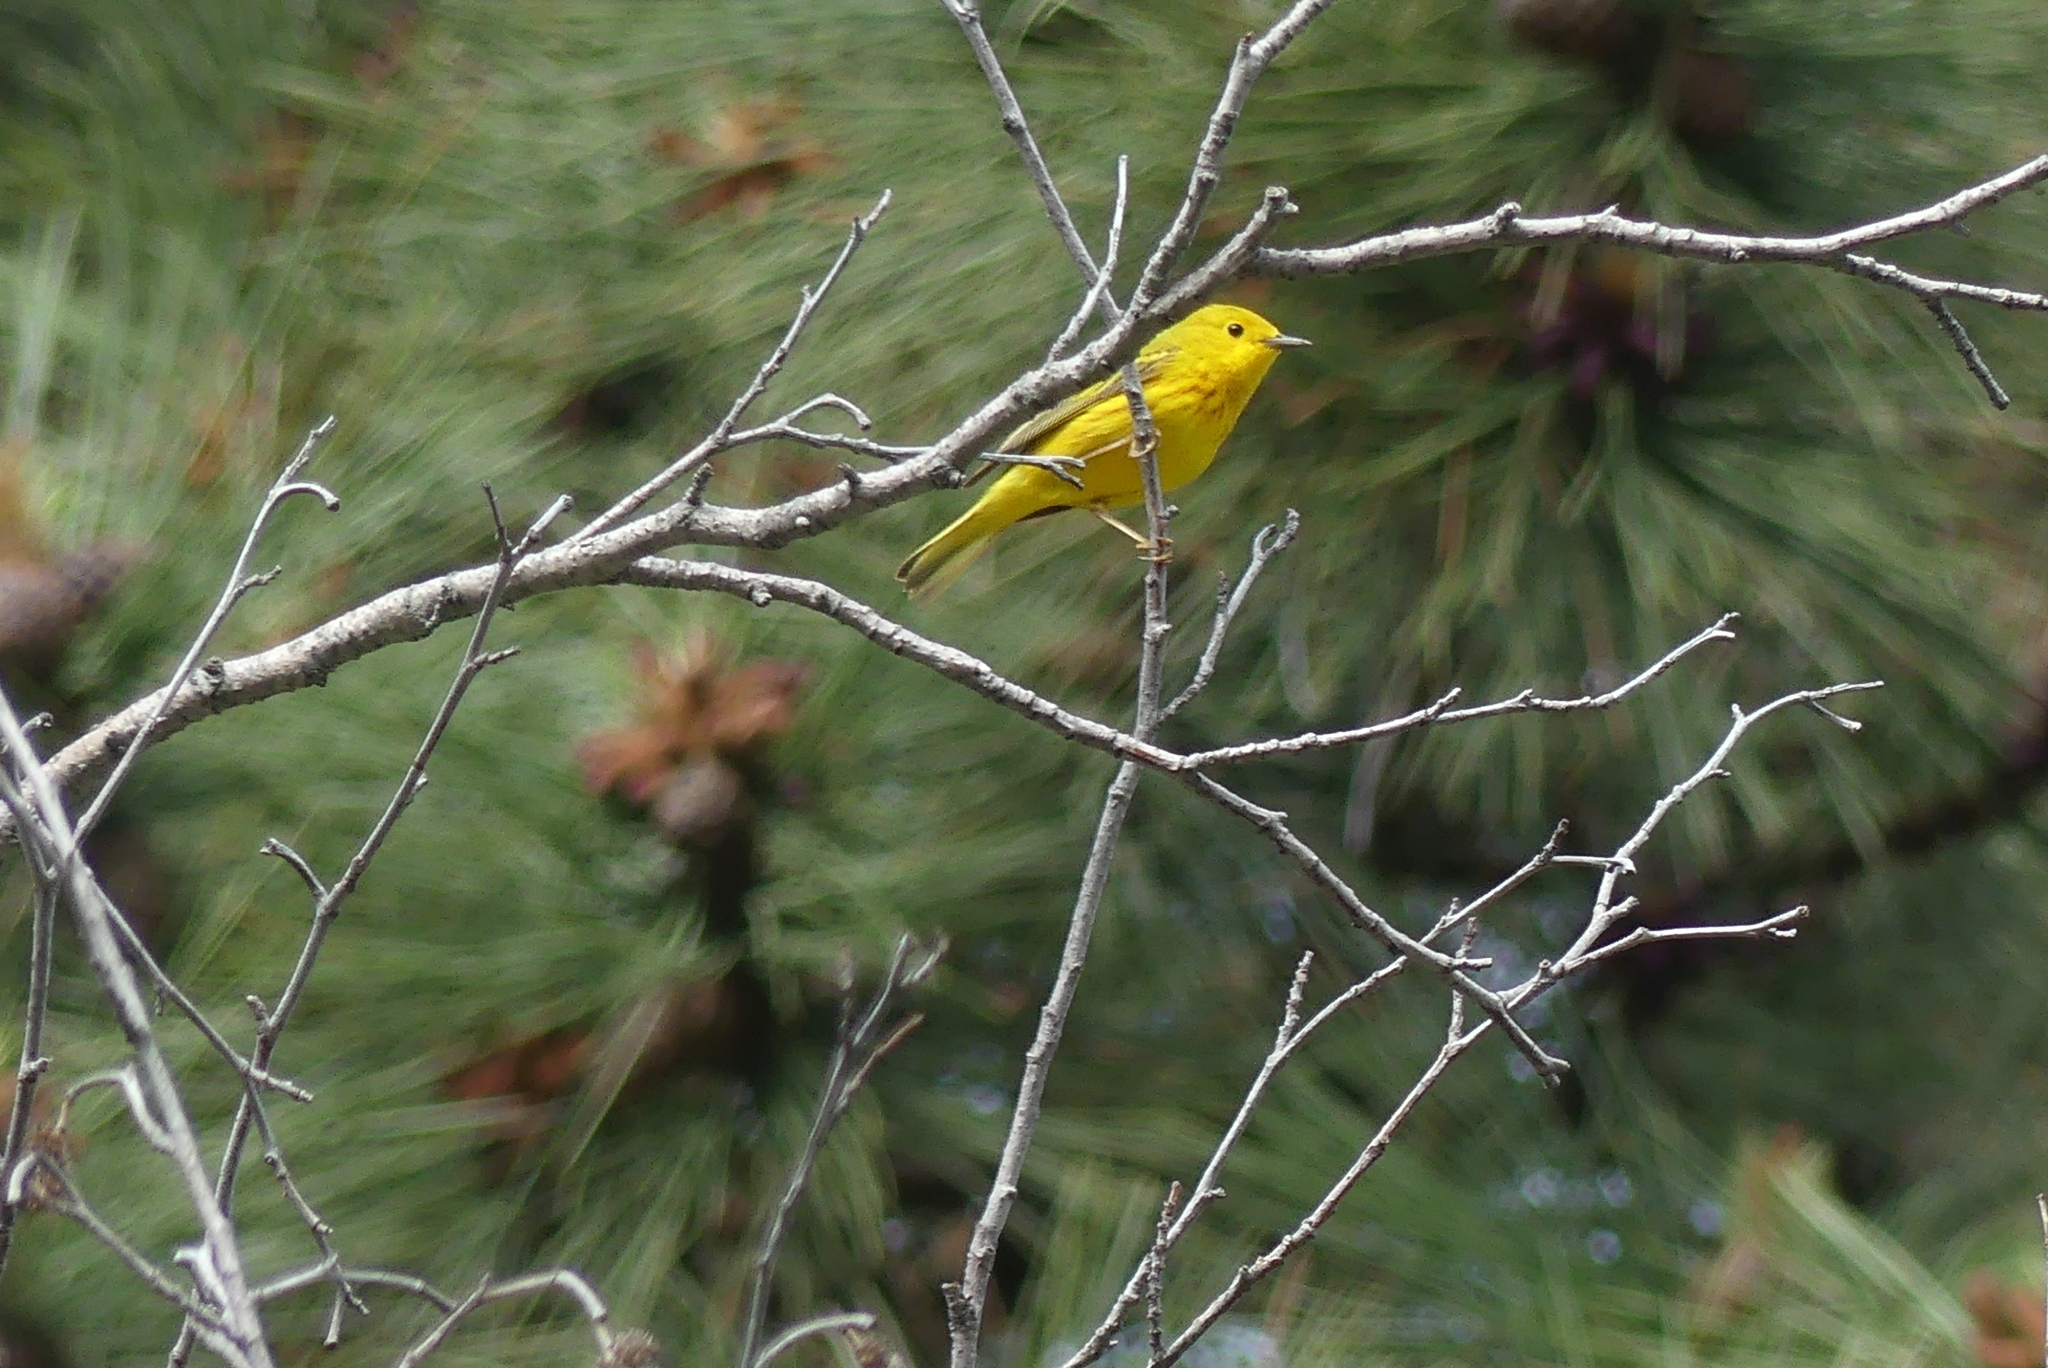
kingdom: Animalia
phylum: Chordata
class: Aves
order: Passeriformes
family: Parulidae
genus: Setophaga
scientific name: Setophaga petechia
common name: Yellow warbler
